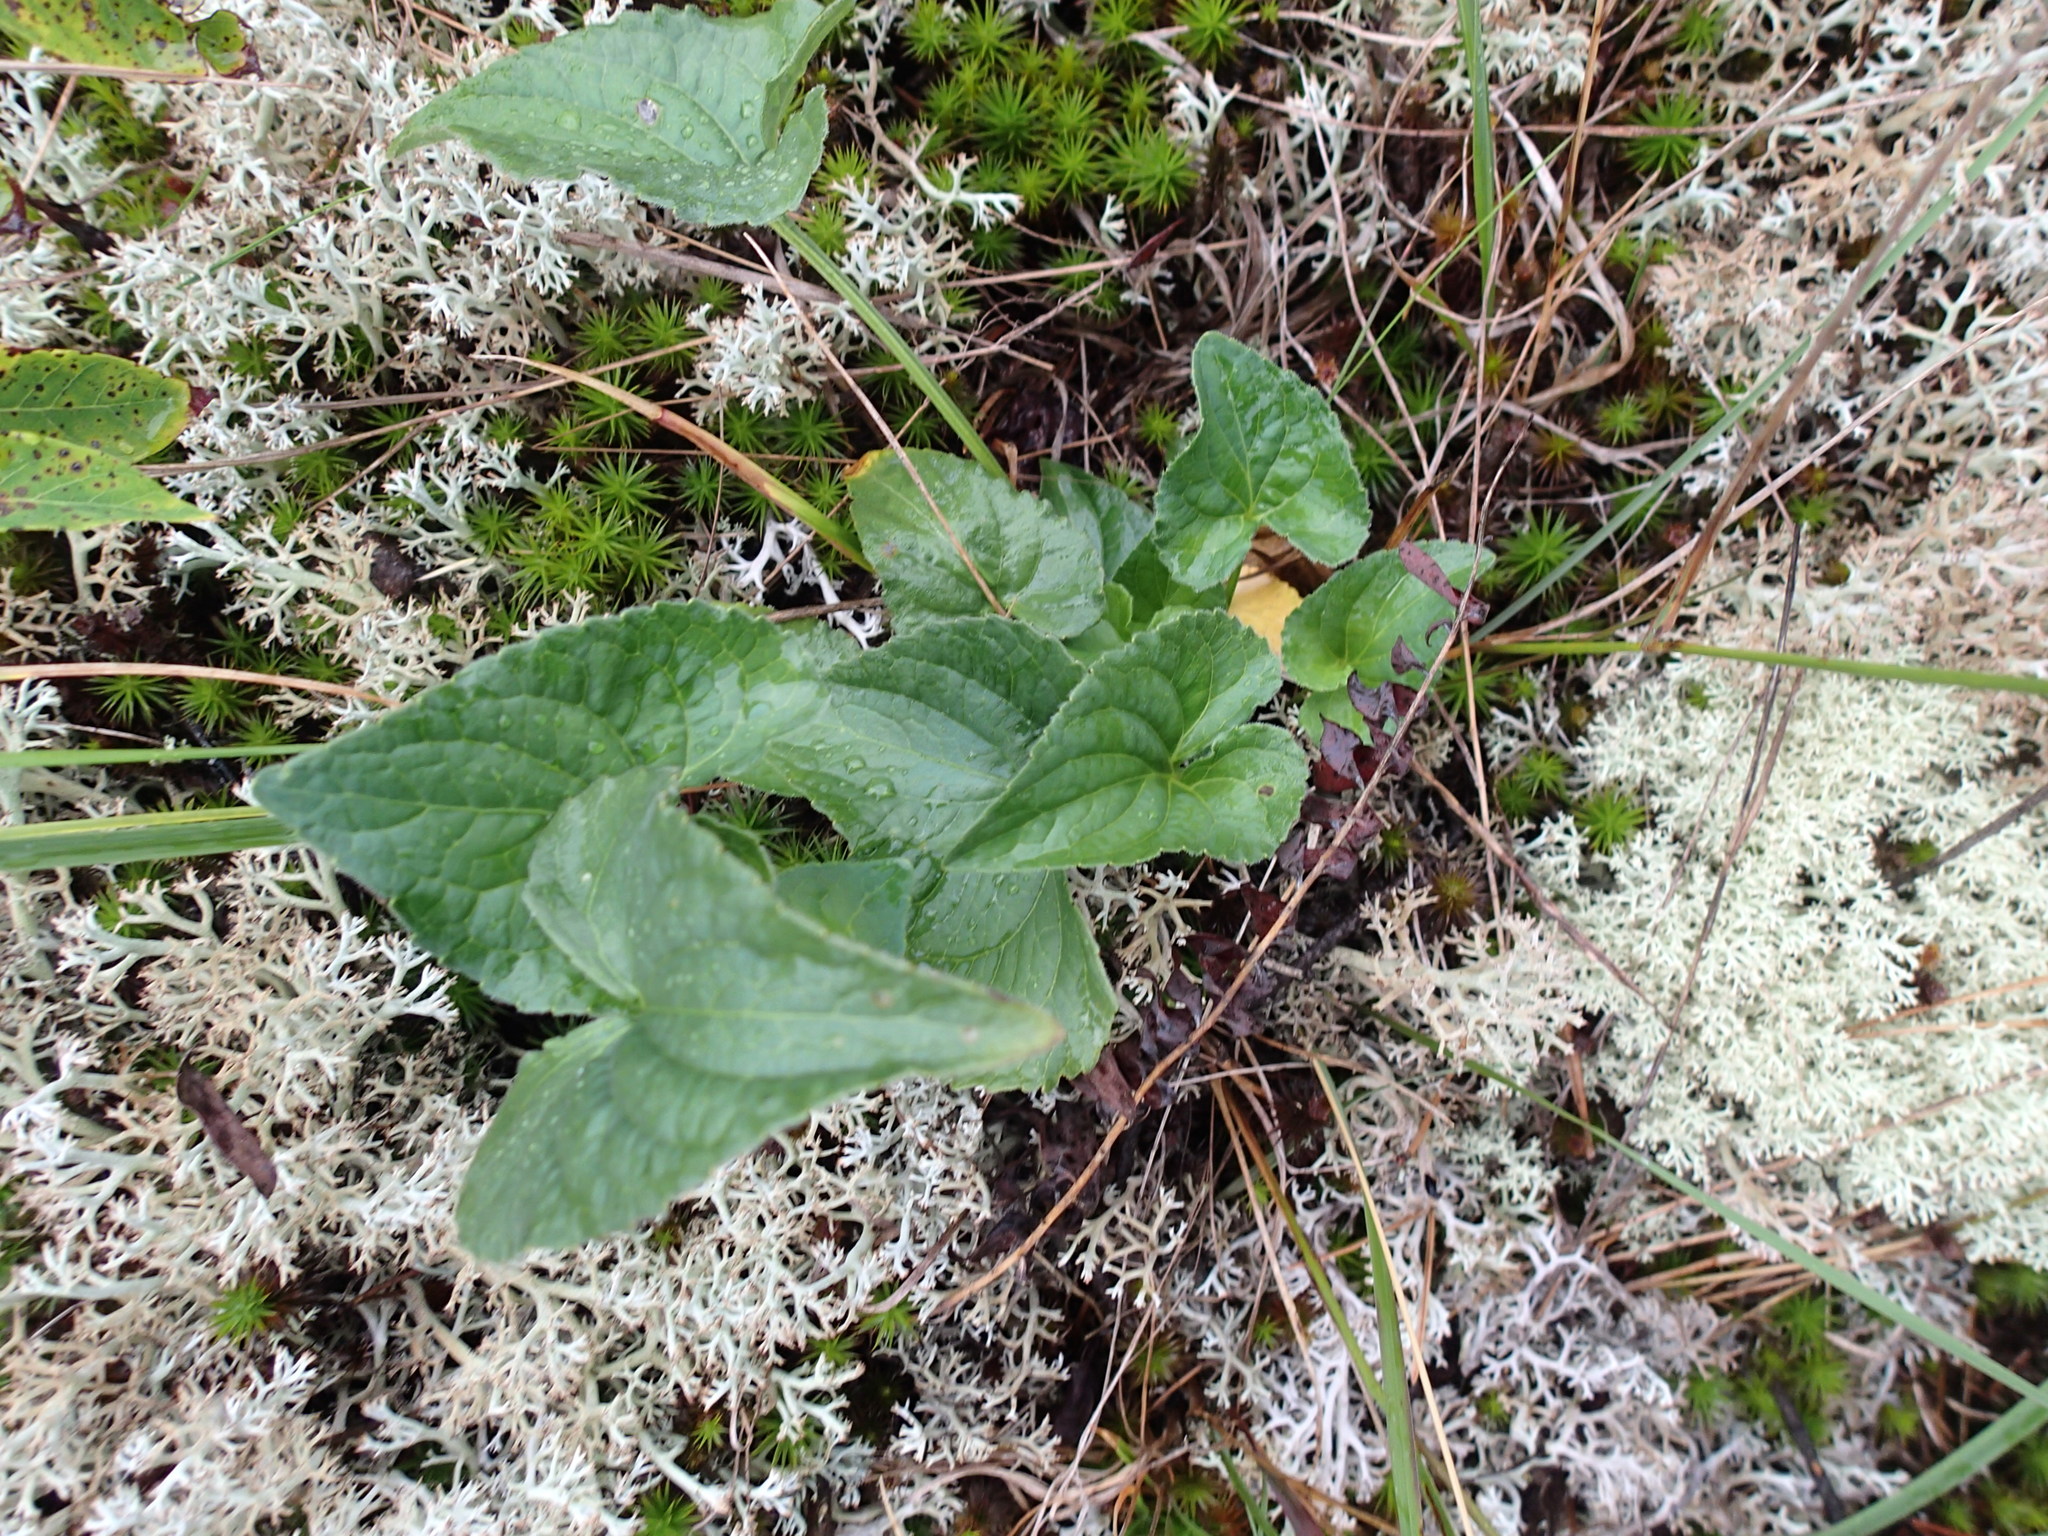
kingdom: Plantae
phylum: Tracheophyta
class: Magnoliopsida
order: Malpighiales
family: Violaceae
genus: Viola
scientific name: Viola novae-angliae
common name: New england blue violet
